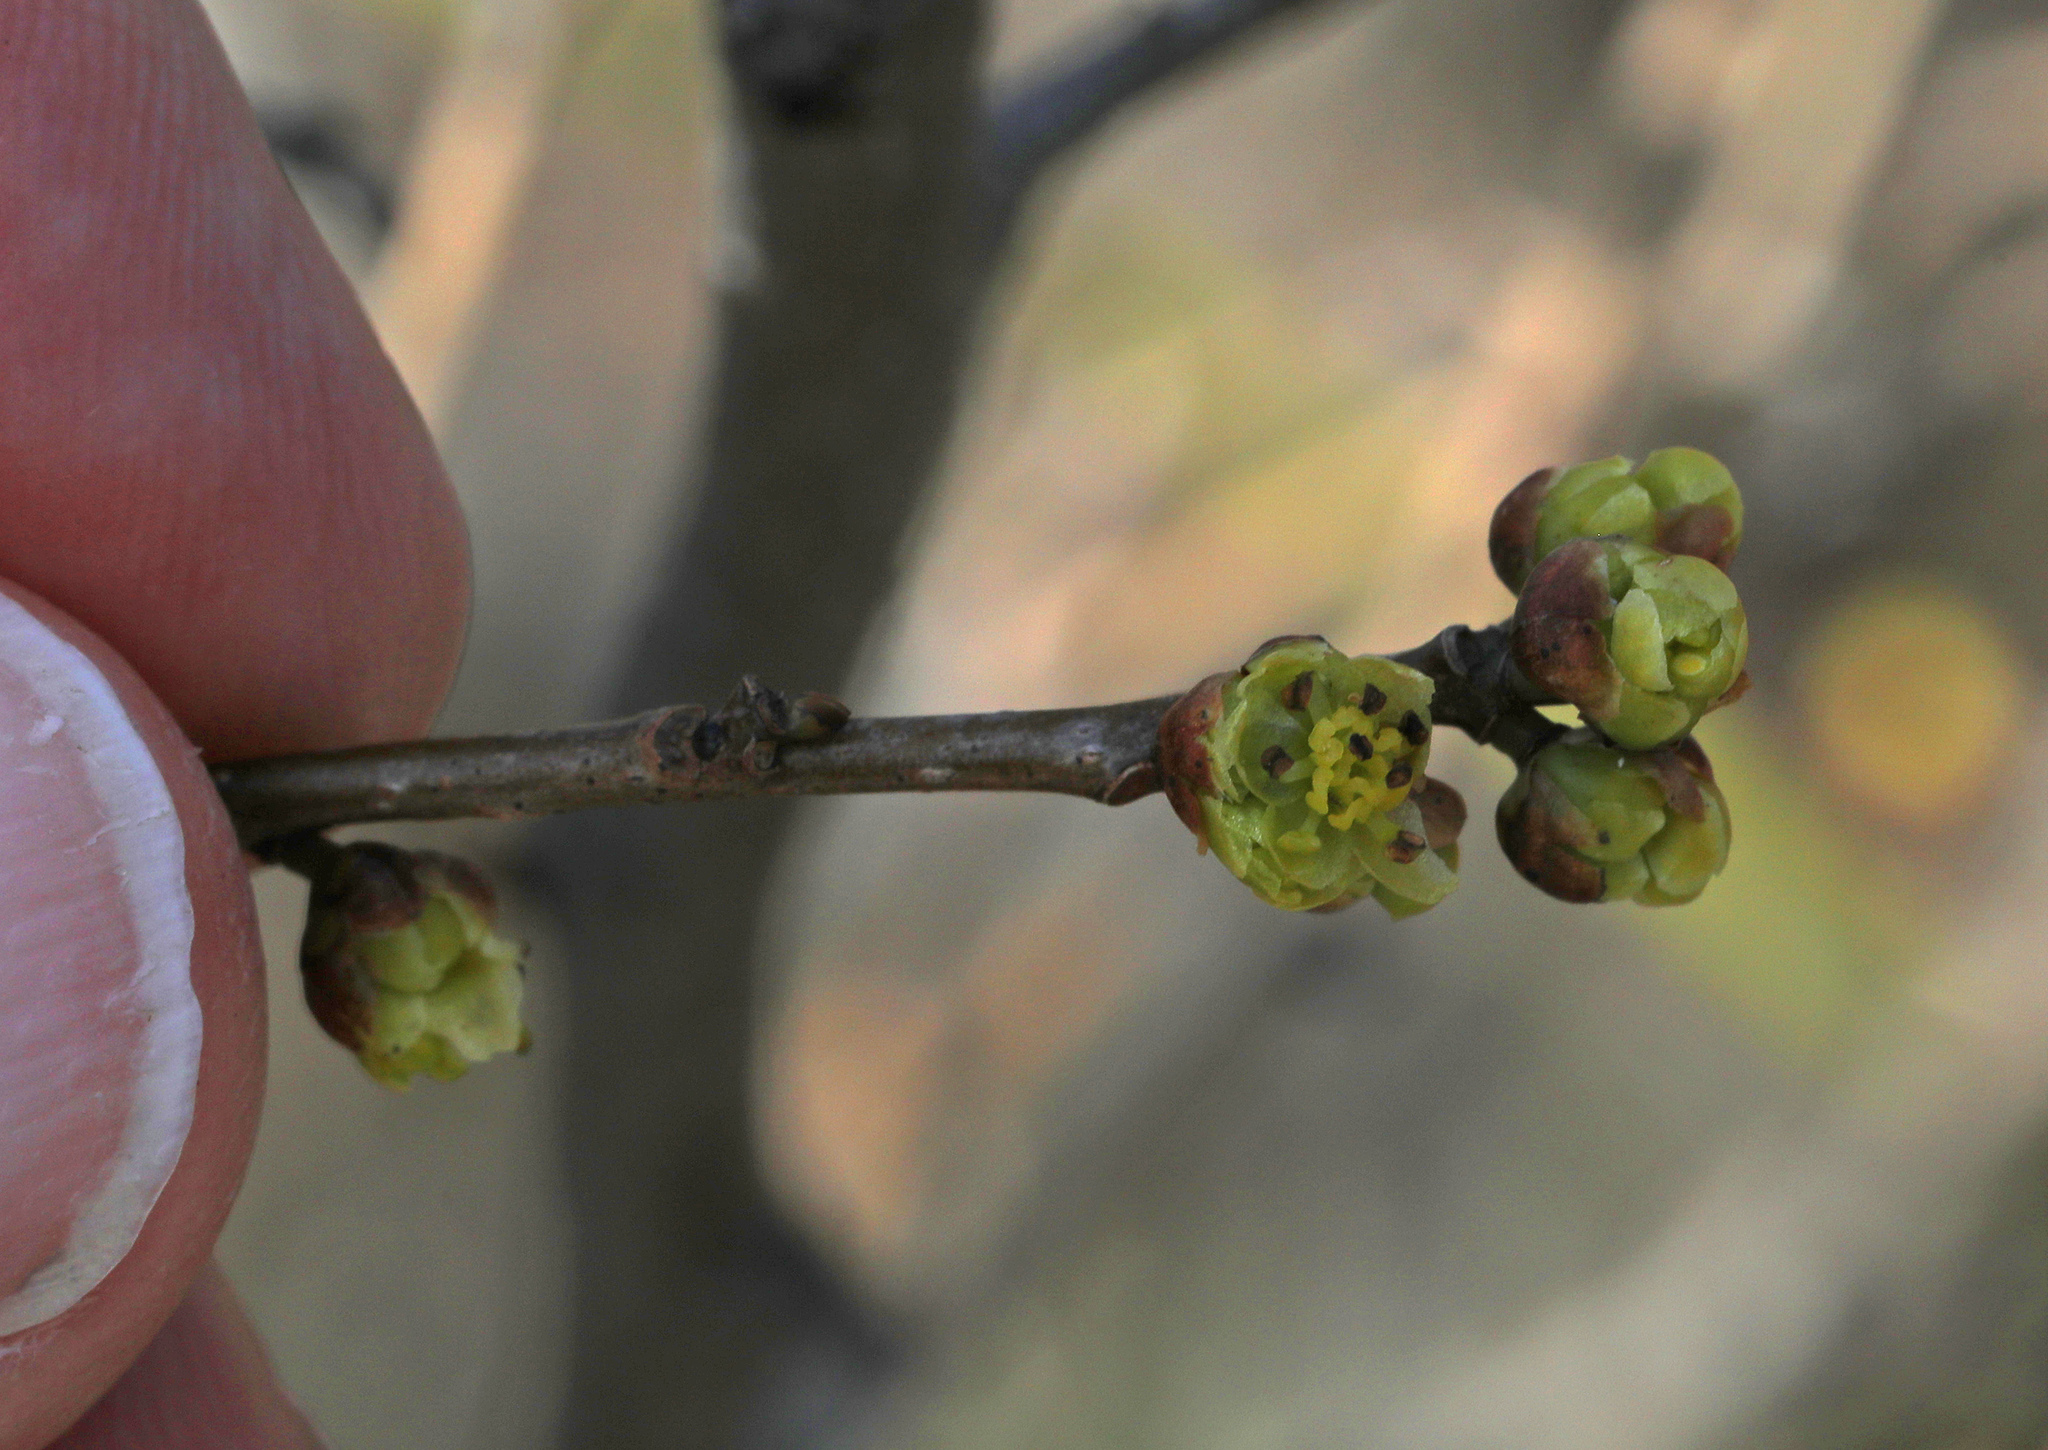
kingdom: Plantae
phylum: Tracheophyta
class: Magnoliopsida
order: Laurales
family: Lauraceae
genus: Lindera
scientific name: Lindera benzoin
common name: Spicebush
